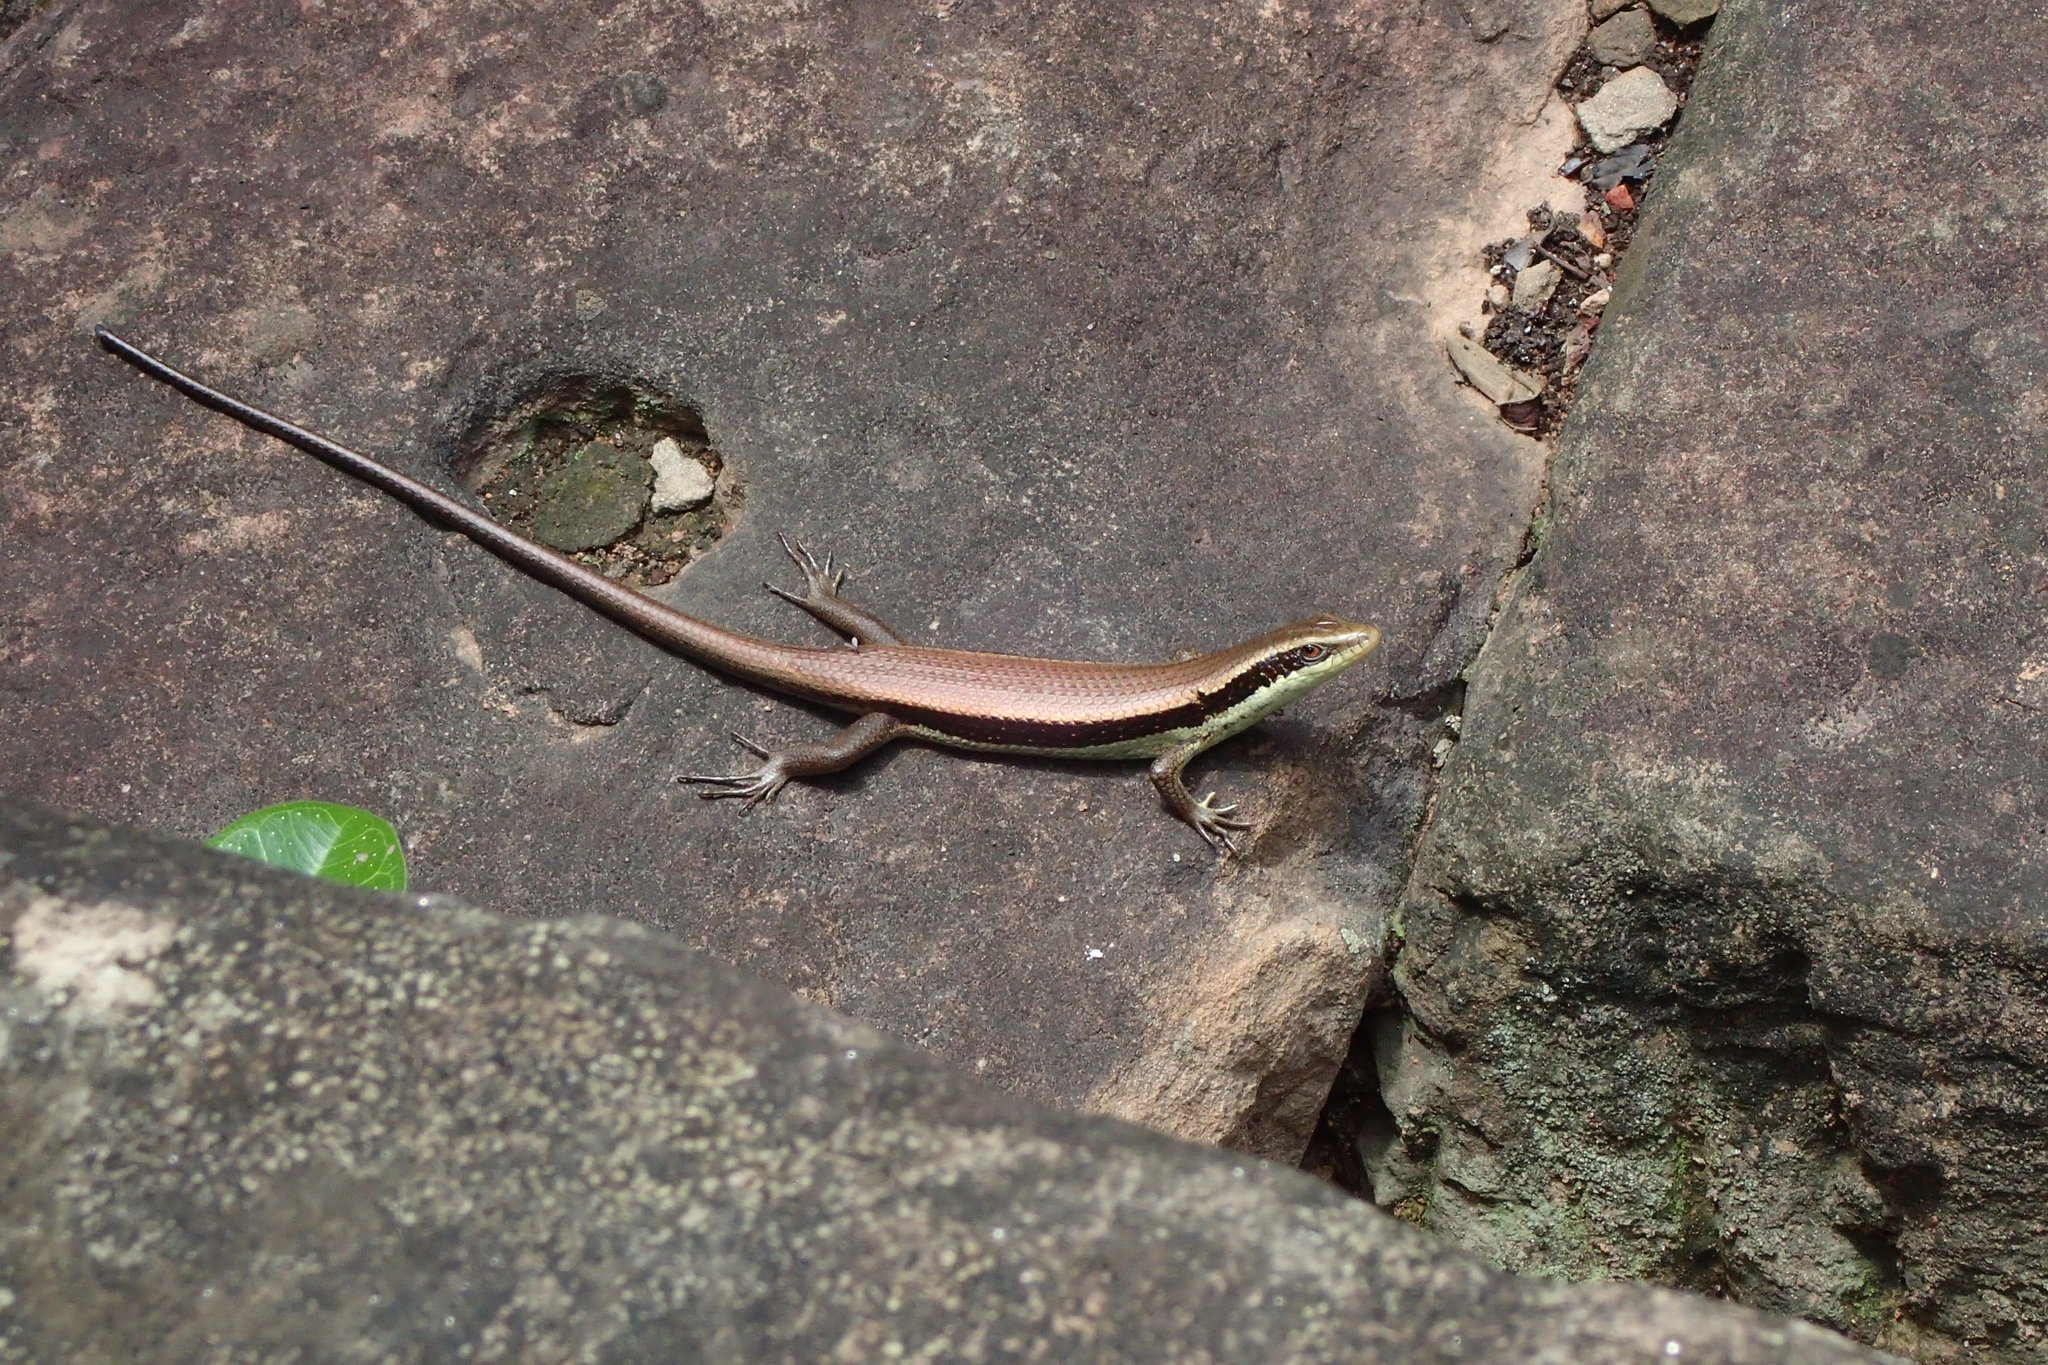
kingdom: Animalia
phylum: Chordata
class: Squamata
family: Scincidae
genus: Eutropis
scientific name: Eutropis longicaudata
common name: Long-tailed sun skink
